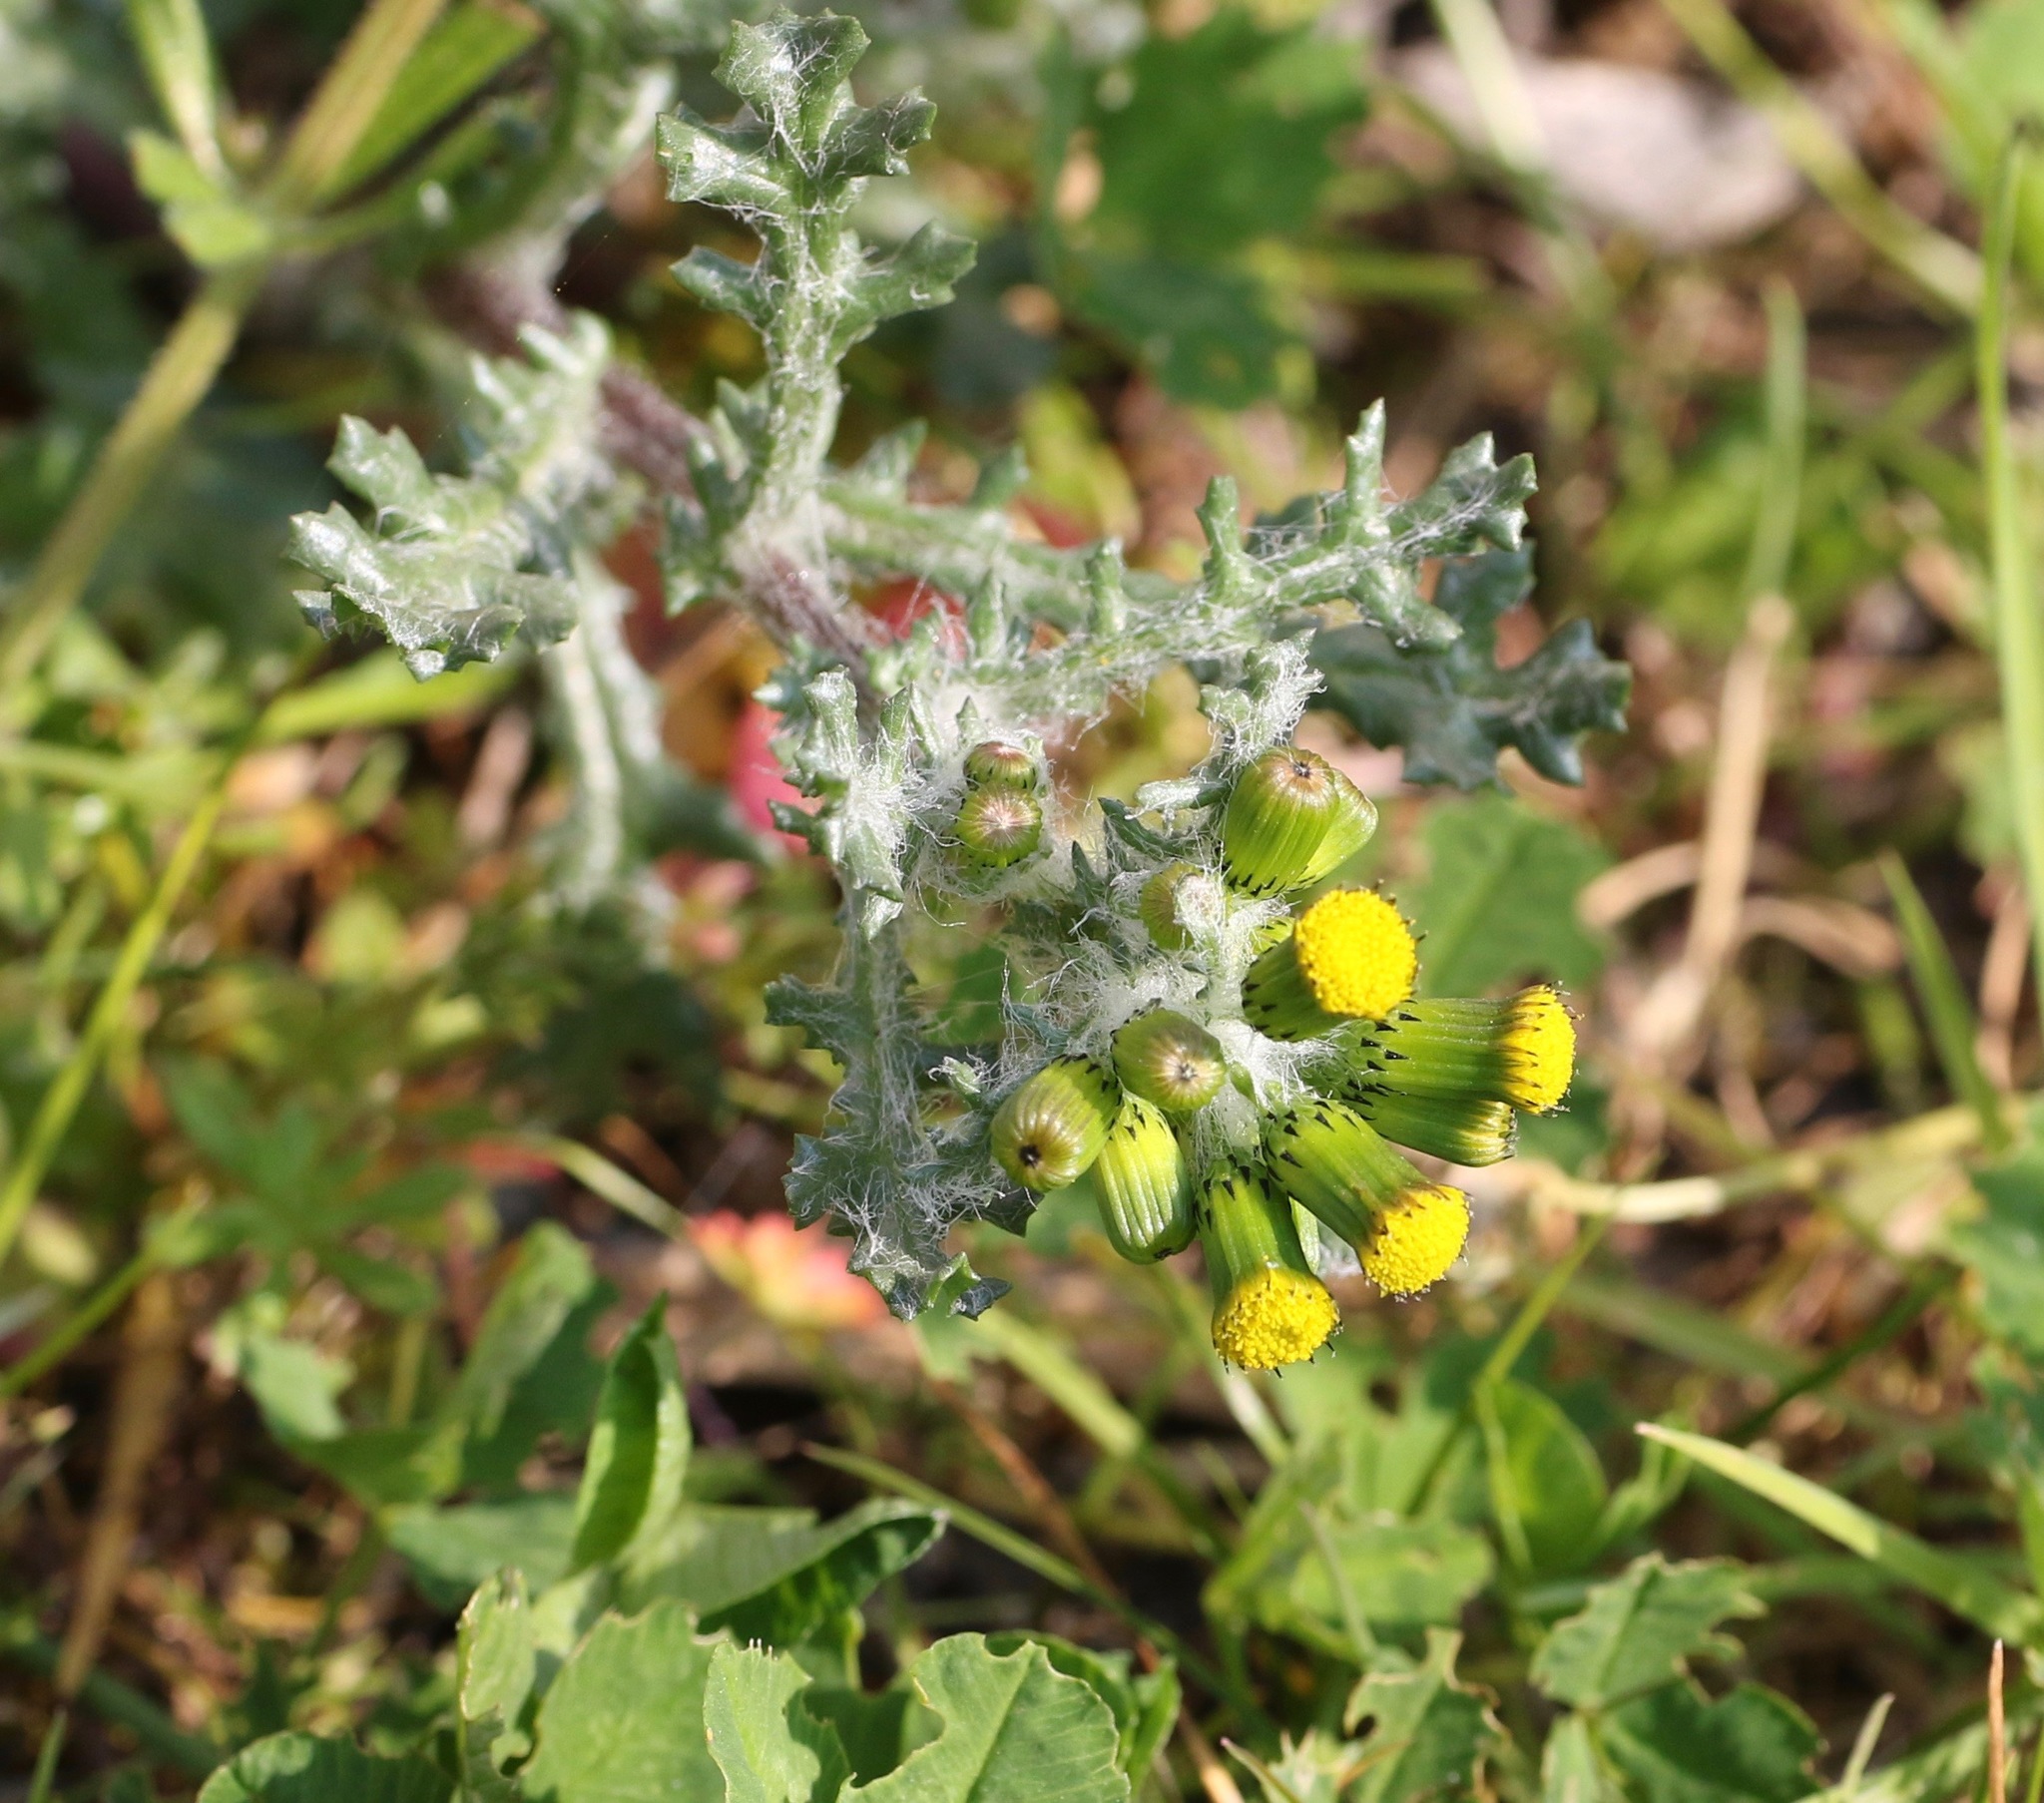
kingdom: Plantae
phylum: Tracheophyta
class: Magnoliopsida
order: Asterales
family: Asteraceae
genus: Senecio
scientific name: Senecio vulgaris
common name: Old-man-in-the-spring
